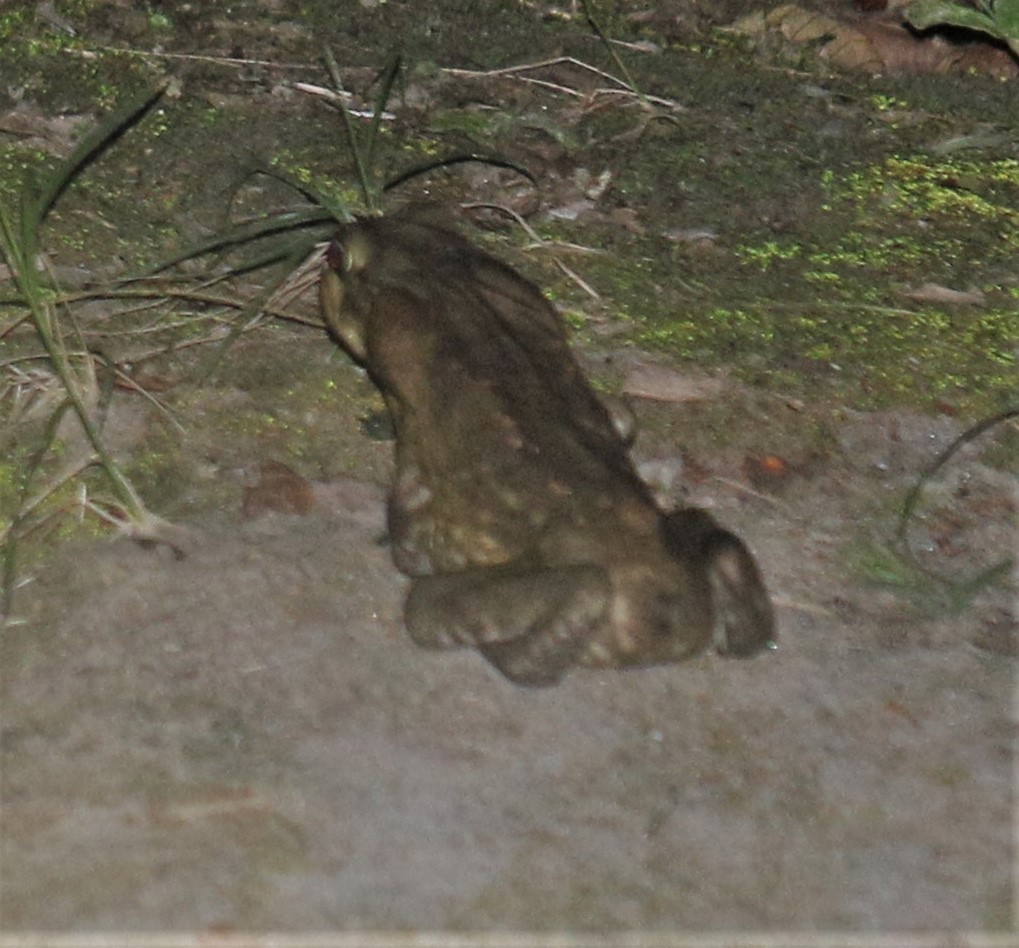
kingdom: Animalia
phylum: Chordata
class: Amphibia
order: Anura
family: Bufonidae
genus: Rhinella
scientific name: Rhinella horribilis
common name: Mesoamerican cane toad
